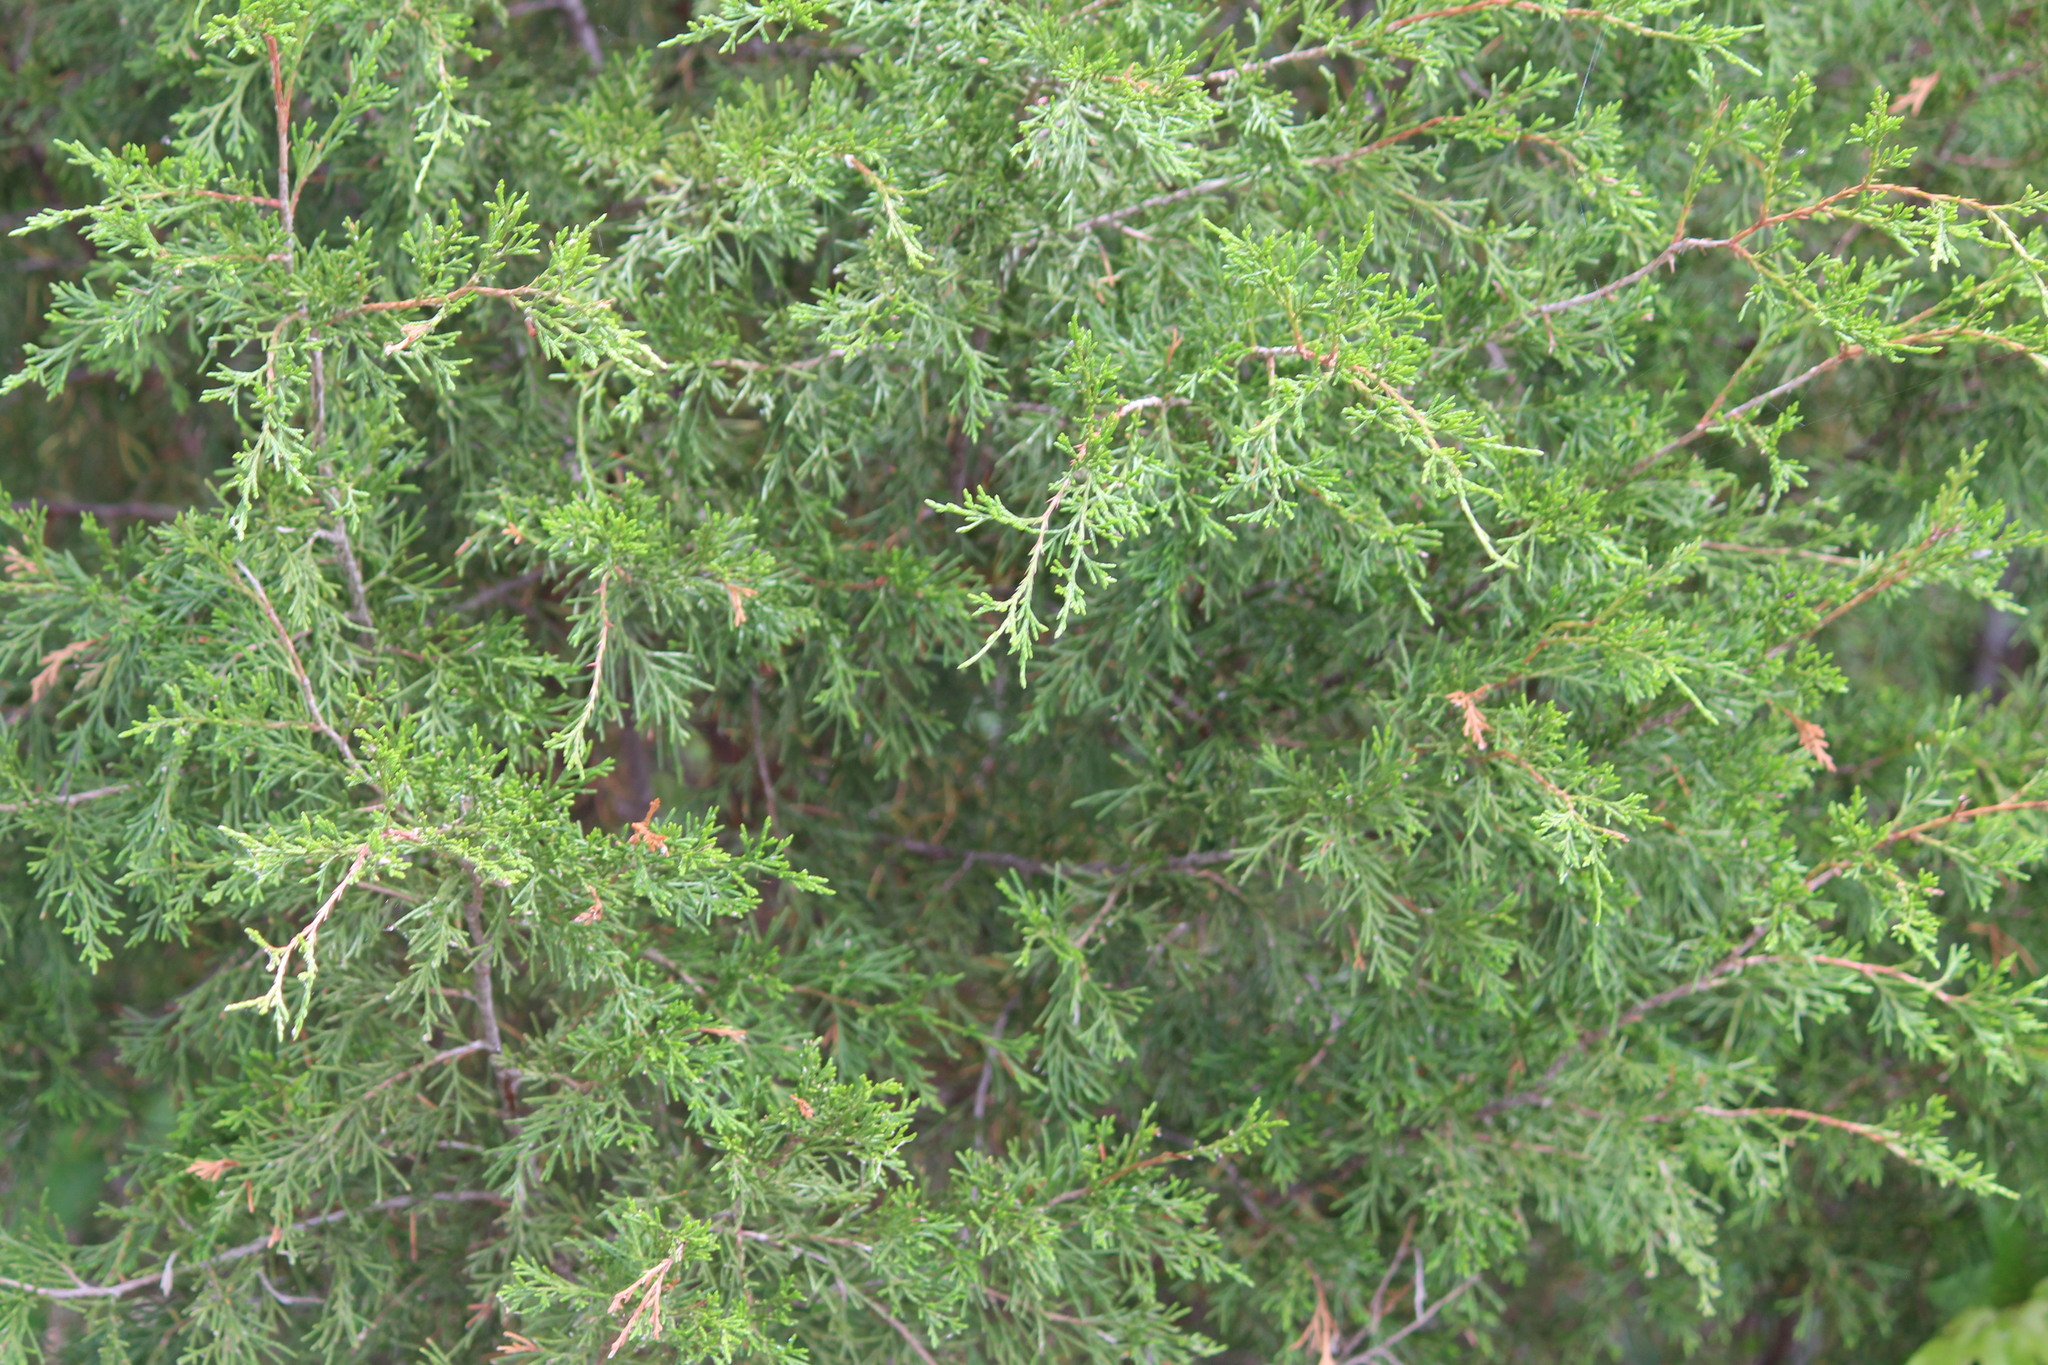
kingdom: Plantae
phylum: Tracheophyta
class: Pinopsida
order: Pinales
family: Cupressaceae
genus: Juniperus
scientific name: Juniperus virginiana
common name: Red juniper
